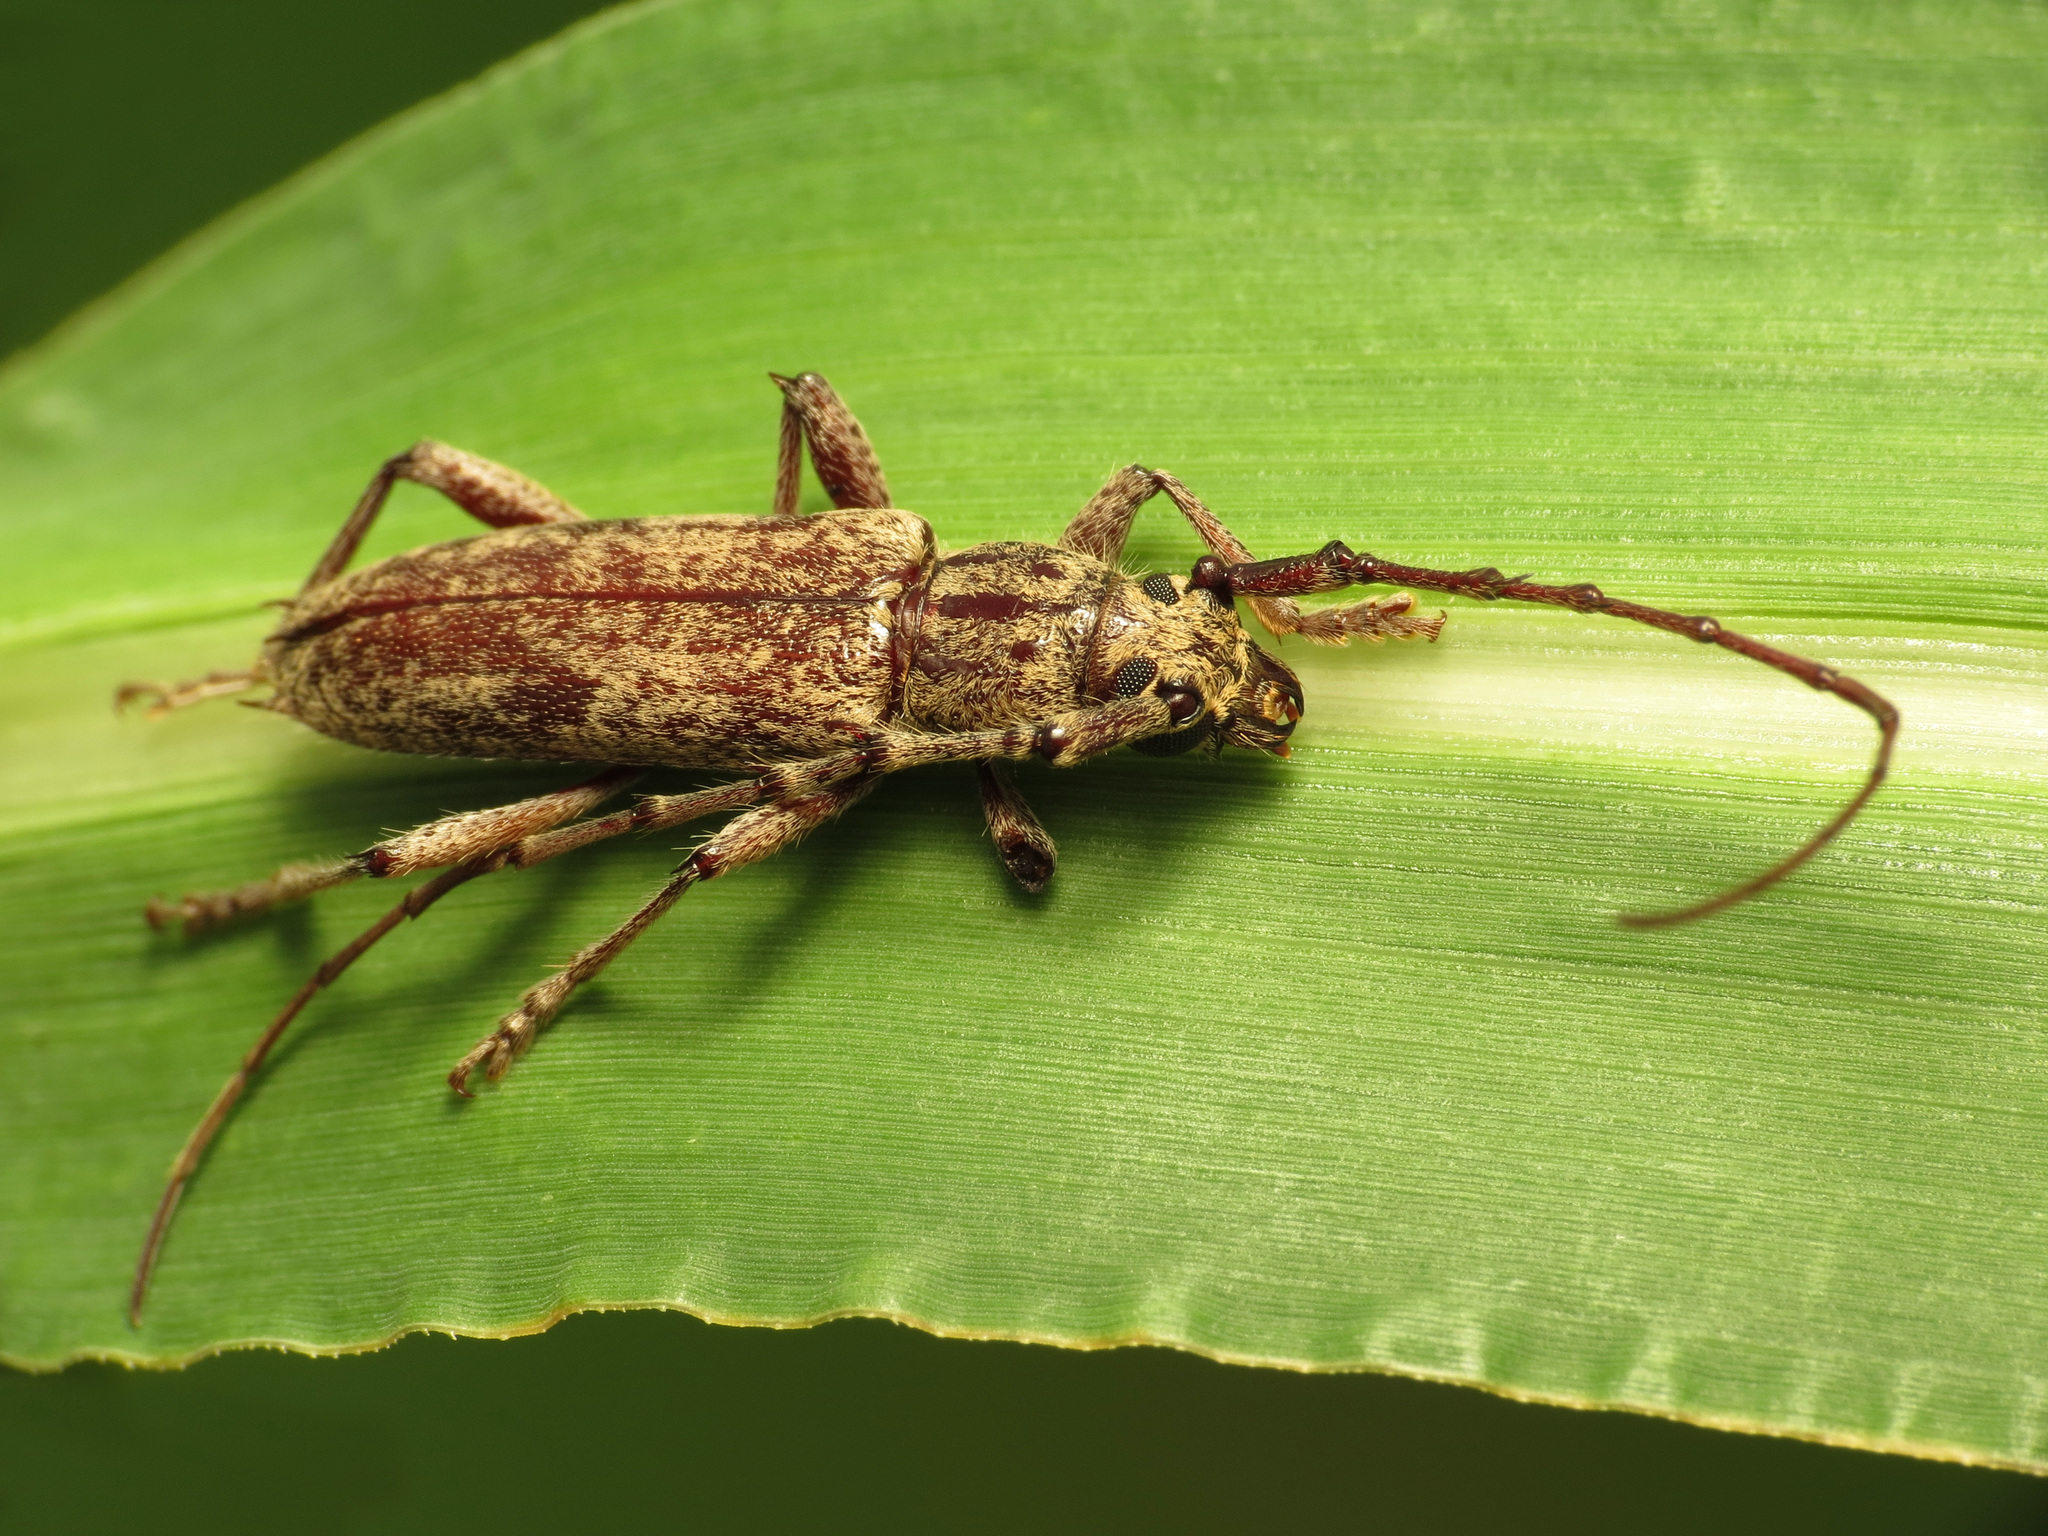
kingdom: Animalia
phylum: Arthropoda
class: Insecta
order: Coleoptera
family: Cerambycidae
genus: Elaphidion
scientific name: Elaphidion mucronatum
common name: Spined oak borer
